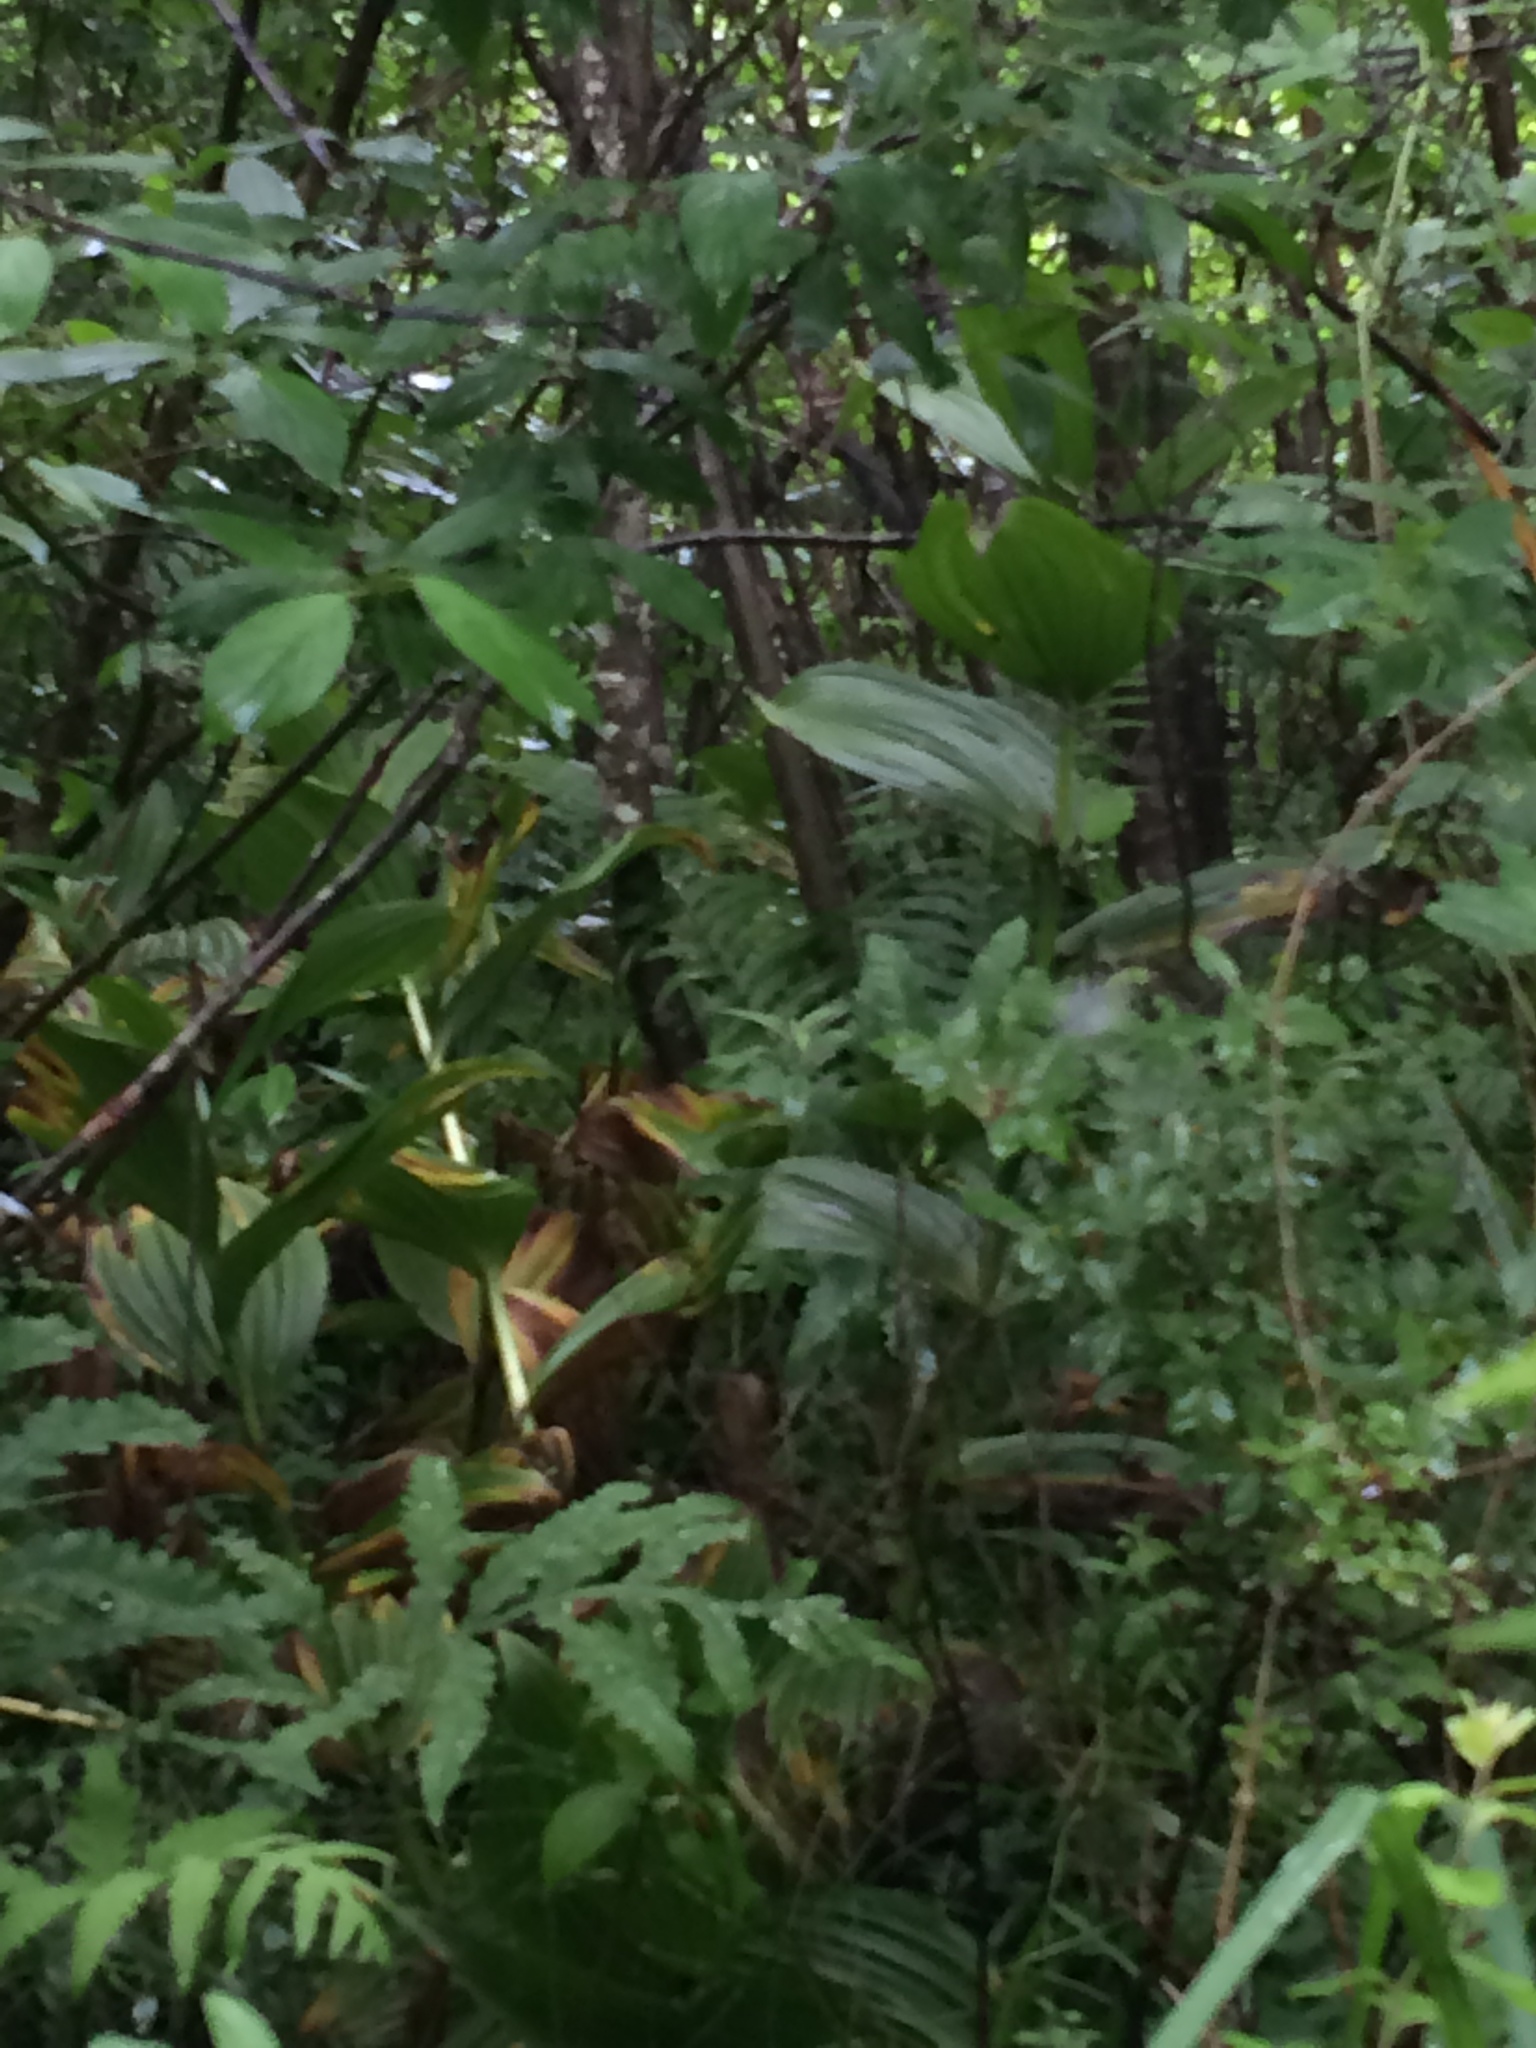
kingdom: Plantae
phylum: Tracheophyta
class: Liliopsida
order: Liliales
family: Melanthiaceae
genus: Veratrum
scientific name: Veratrum viride
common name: American false hellebore
